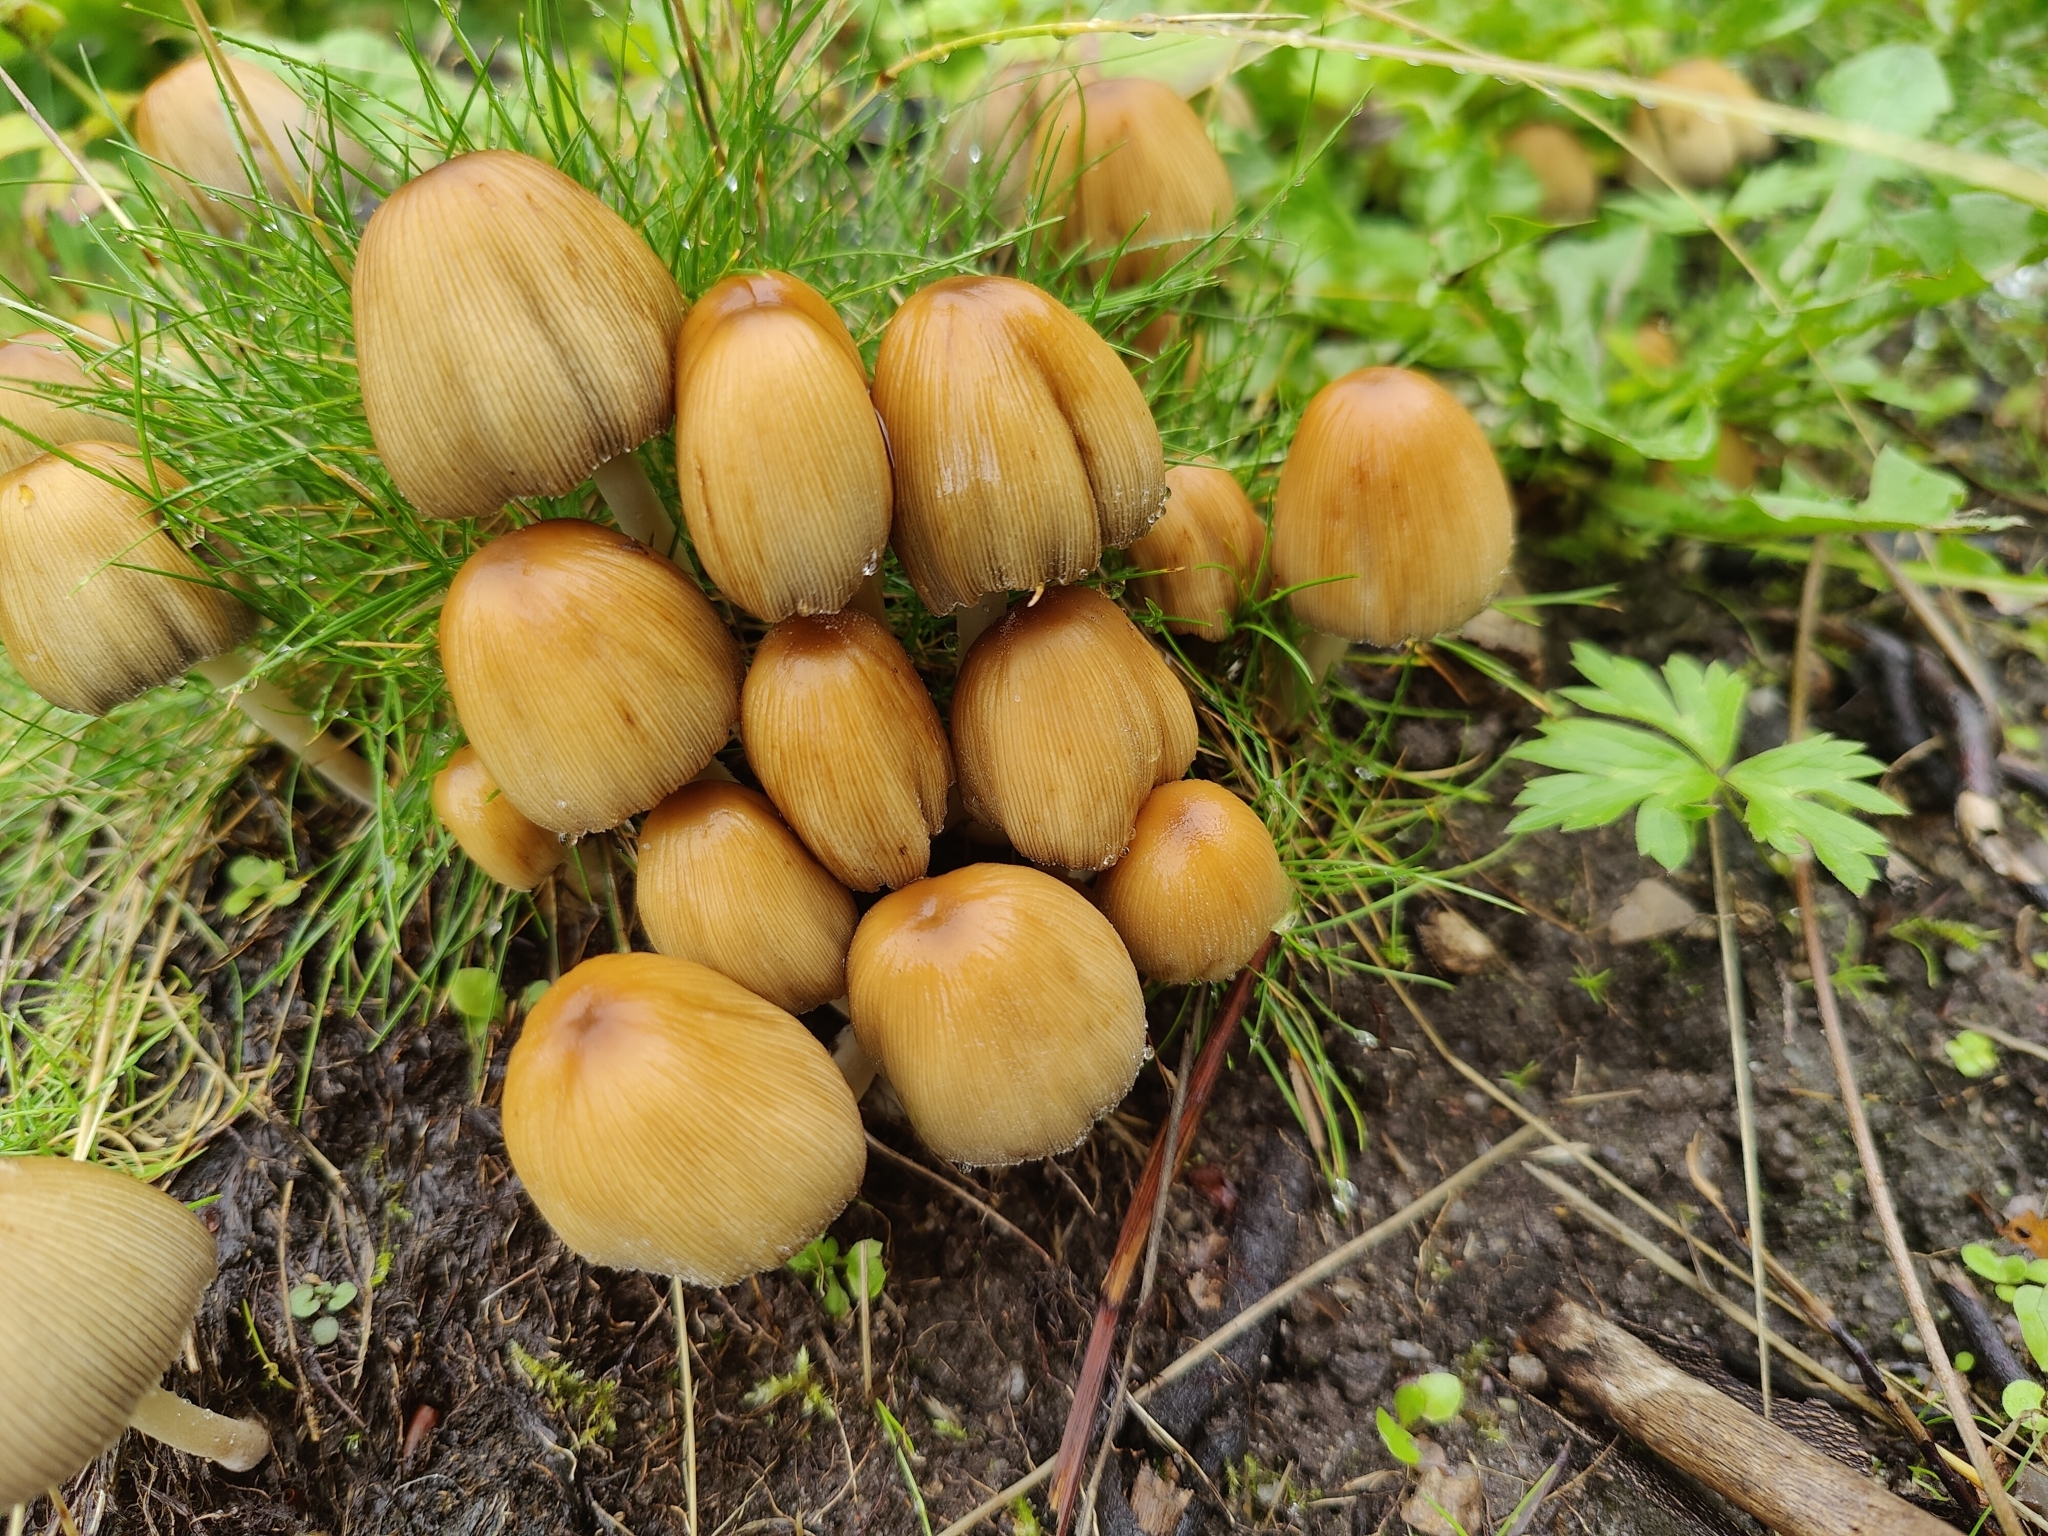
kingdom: Fungi
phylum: Basidiomycota
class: Agaricomycetes
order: Agaricales
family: Psathyrellaceae
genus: Coprinellus
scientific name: Coprinellus micaceus
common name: Glistening ink-cap
